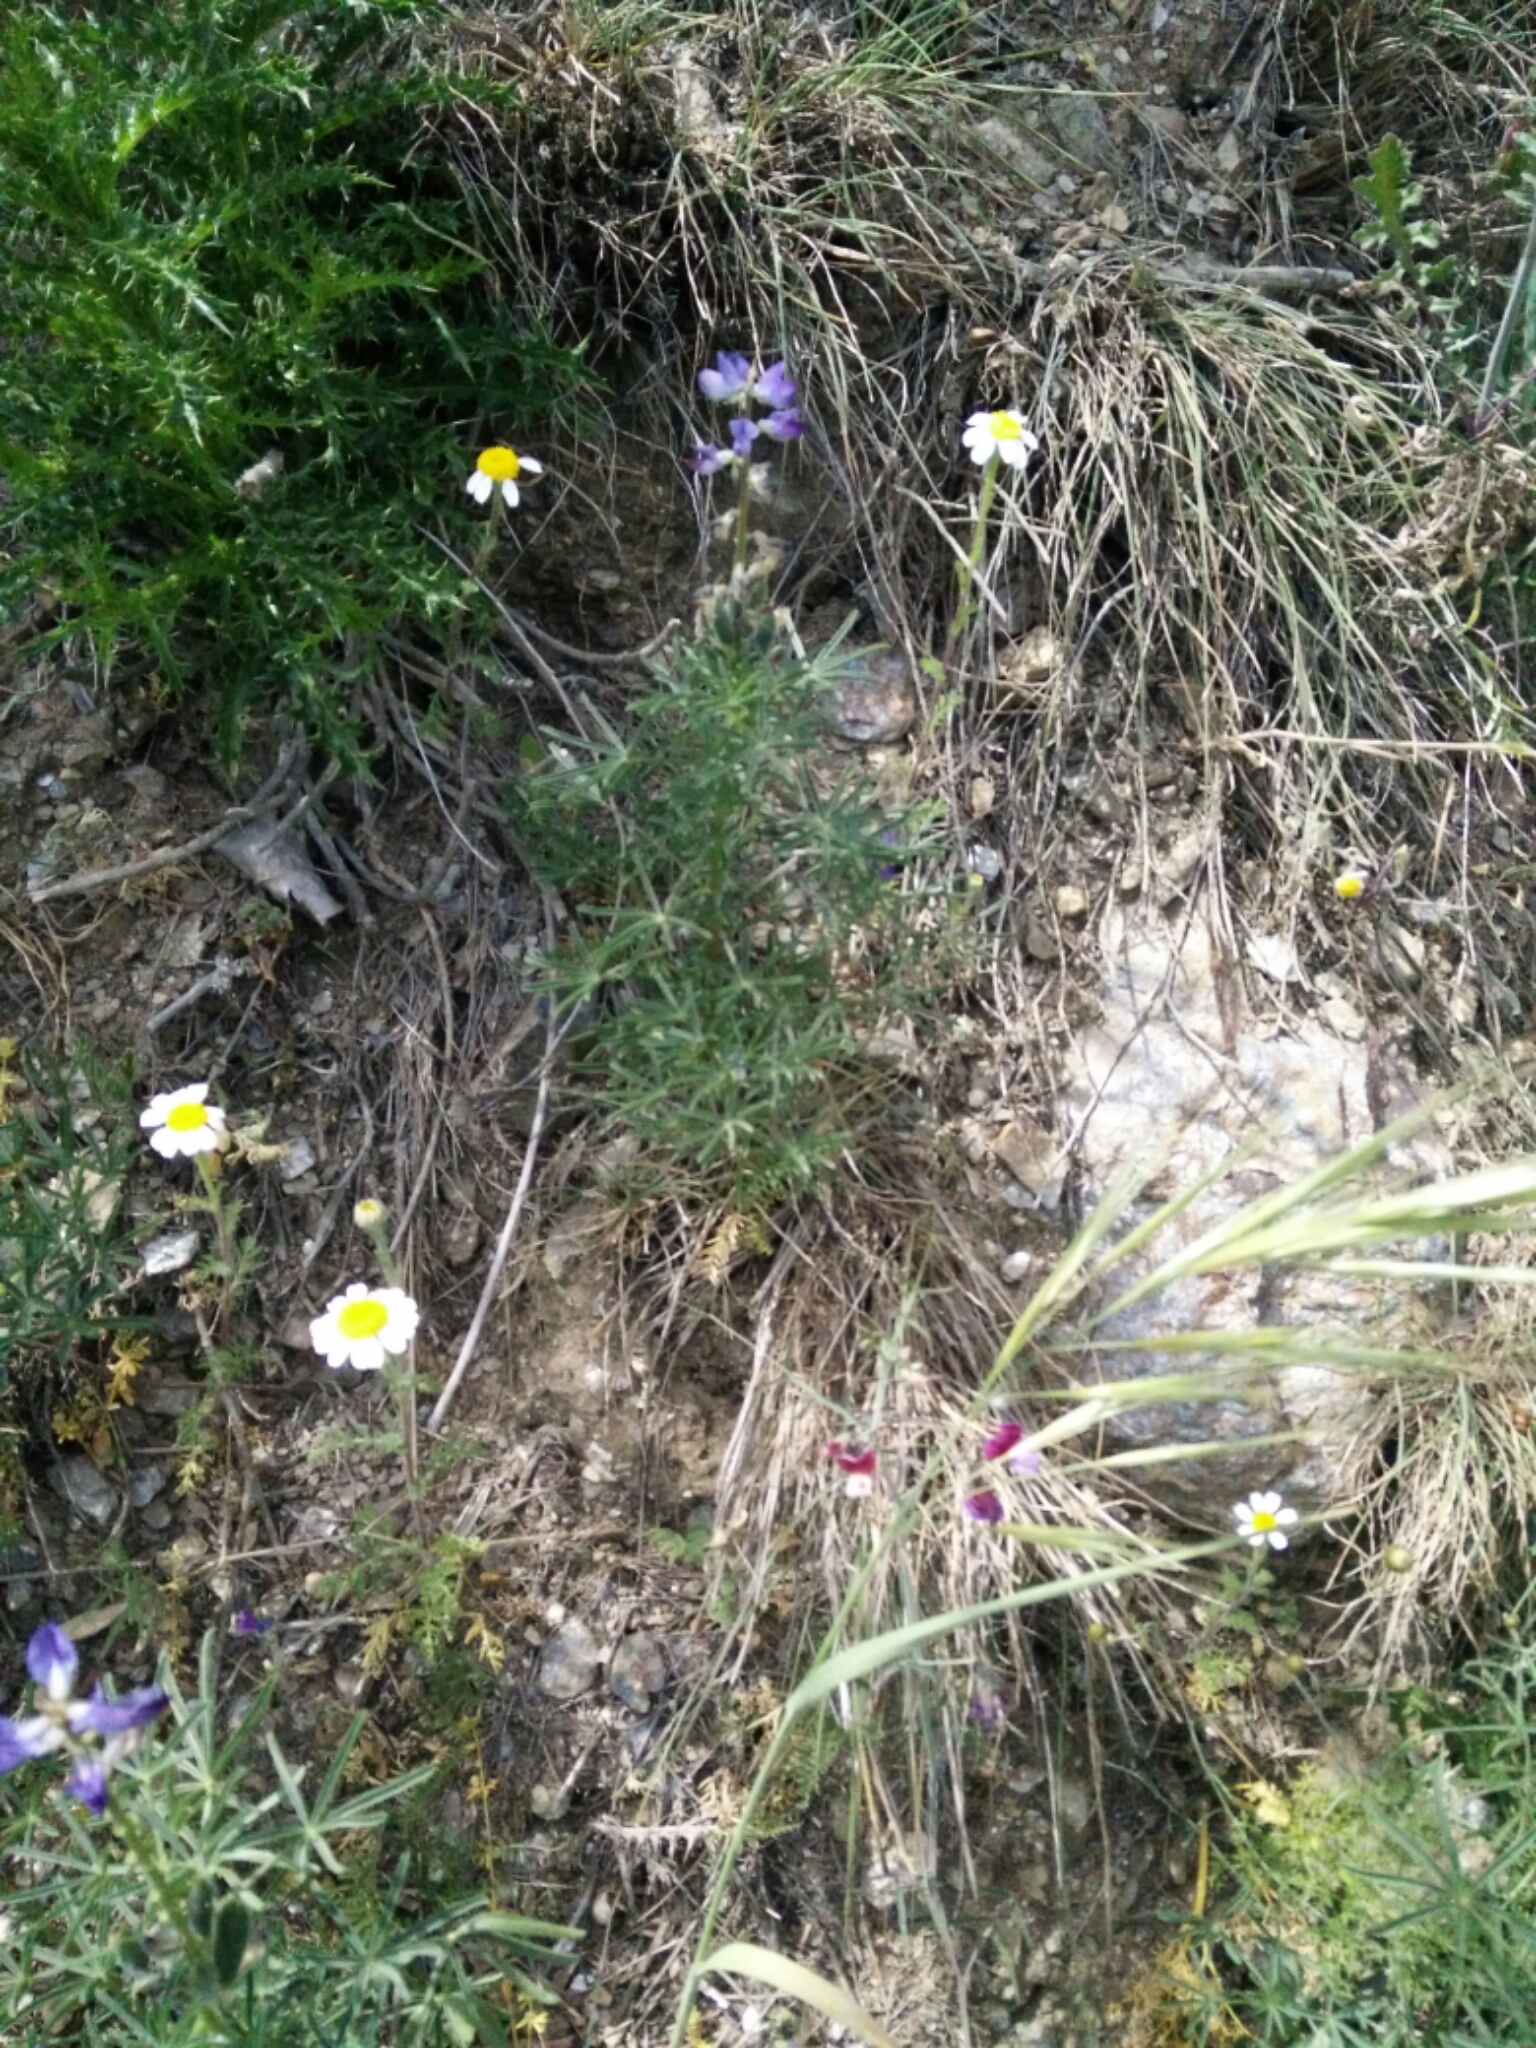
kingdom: Plantae
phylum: Tracheophyta
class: Magnoliopsida
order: Fabales
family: Fabaceae
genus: Lupinus
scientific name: Lupinus angustifolius
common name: Narrow-leaved lupin
